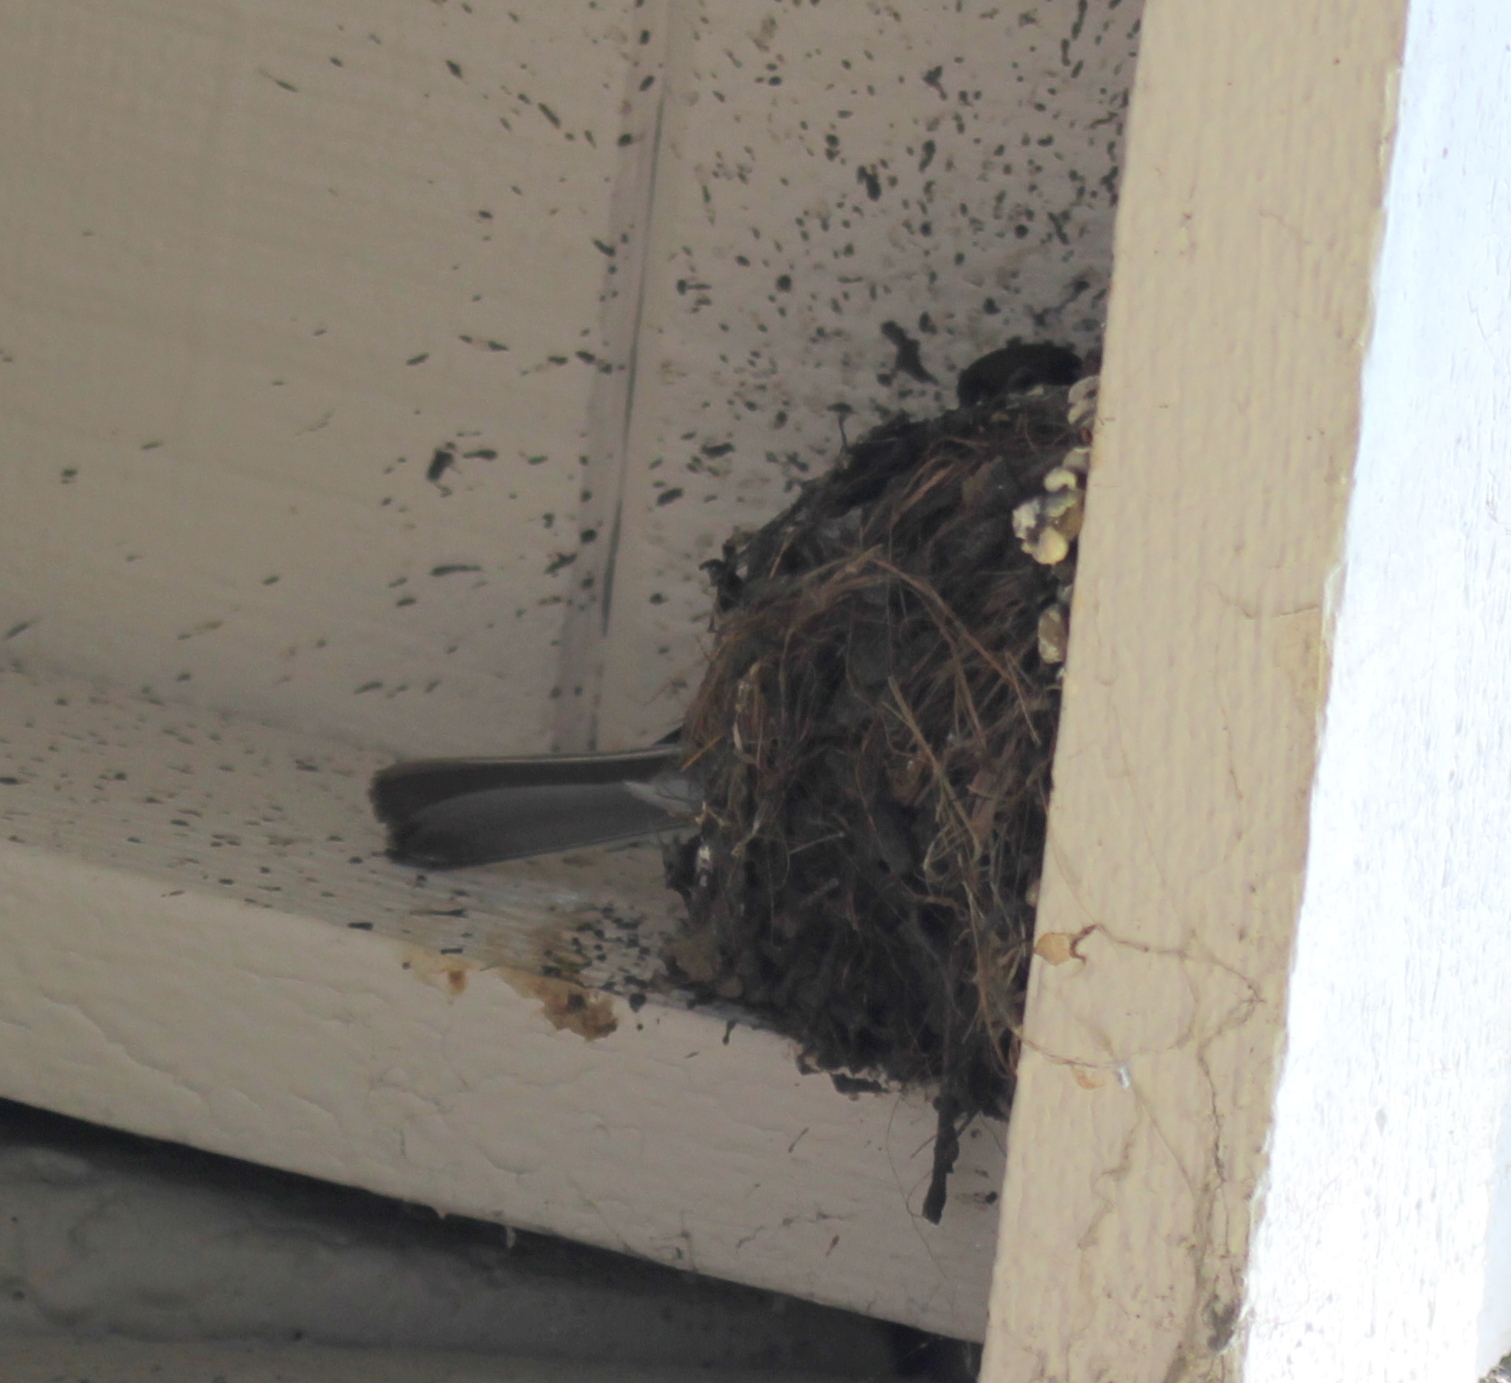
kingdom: Animalia
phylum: Chordata
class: Aves
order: Passeriformes
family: Tyrannidae
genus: Sayornis
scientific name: Sayornis nigricans
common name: Black phoebe
